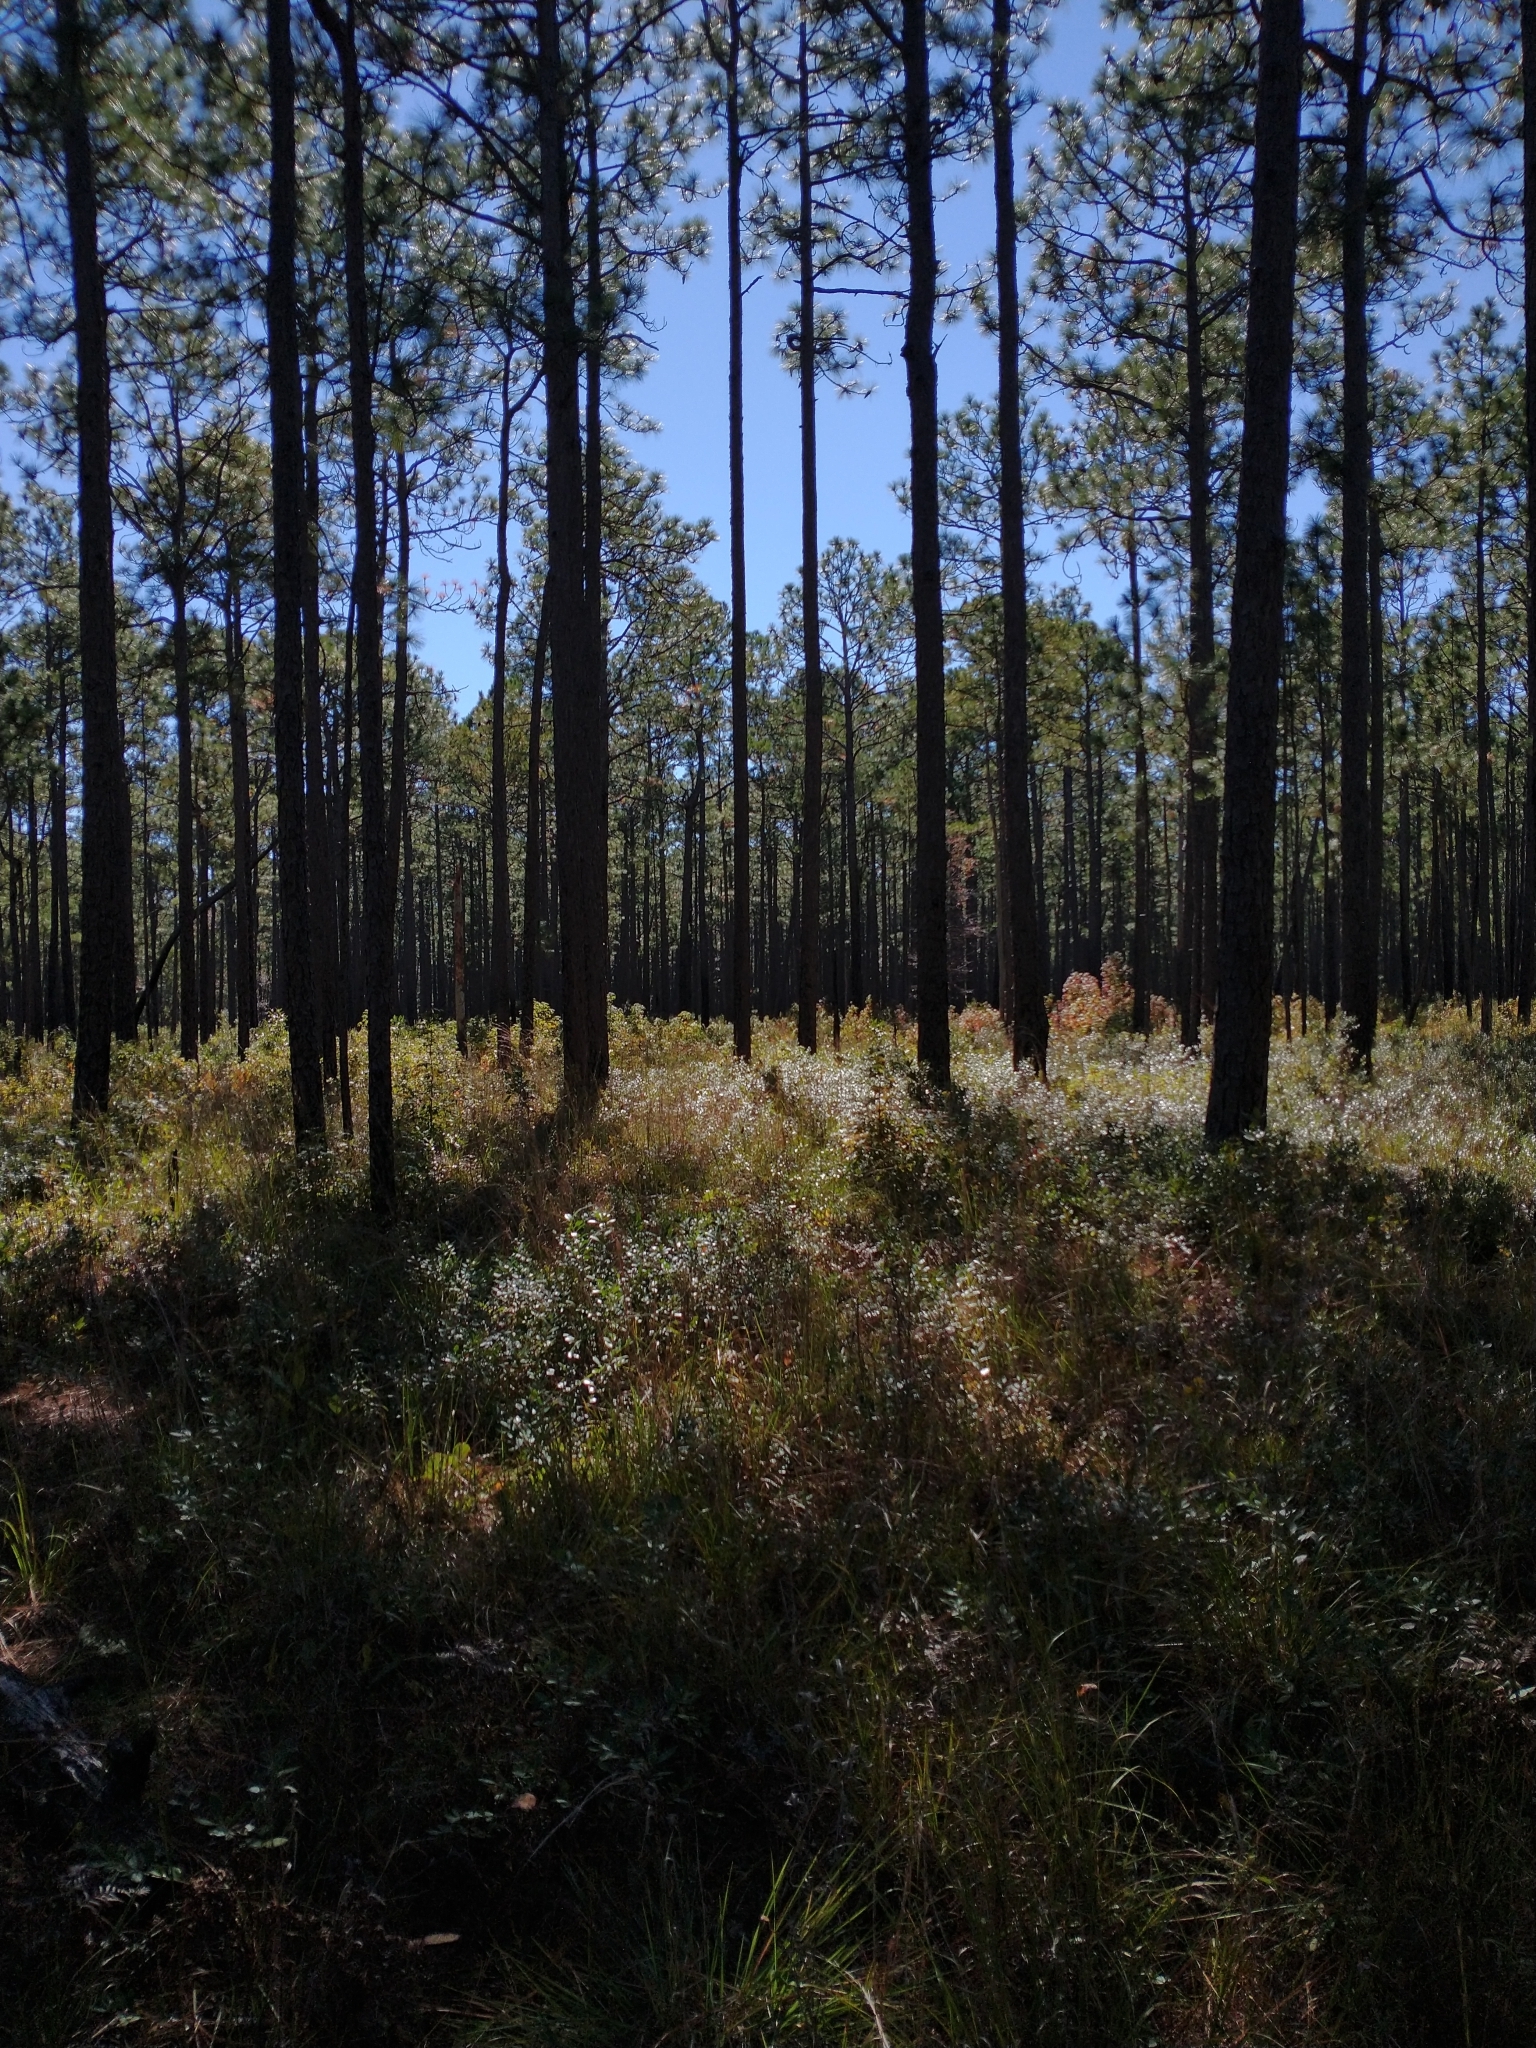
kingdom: Plantae
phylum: Tracheophyta
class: Pinopsida
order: Pinales
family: Pinaceae
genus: Pinus
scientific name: Pinus palustris
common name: Longleaf pine
